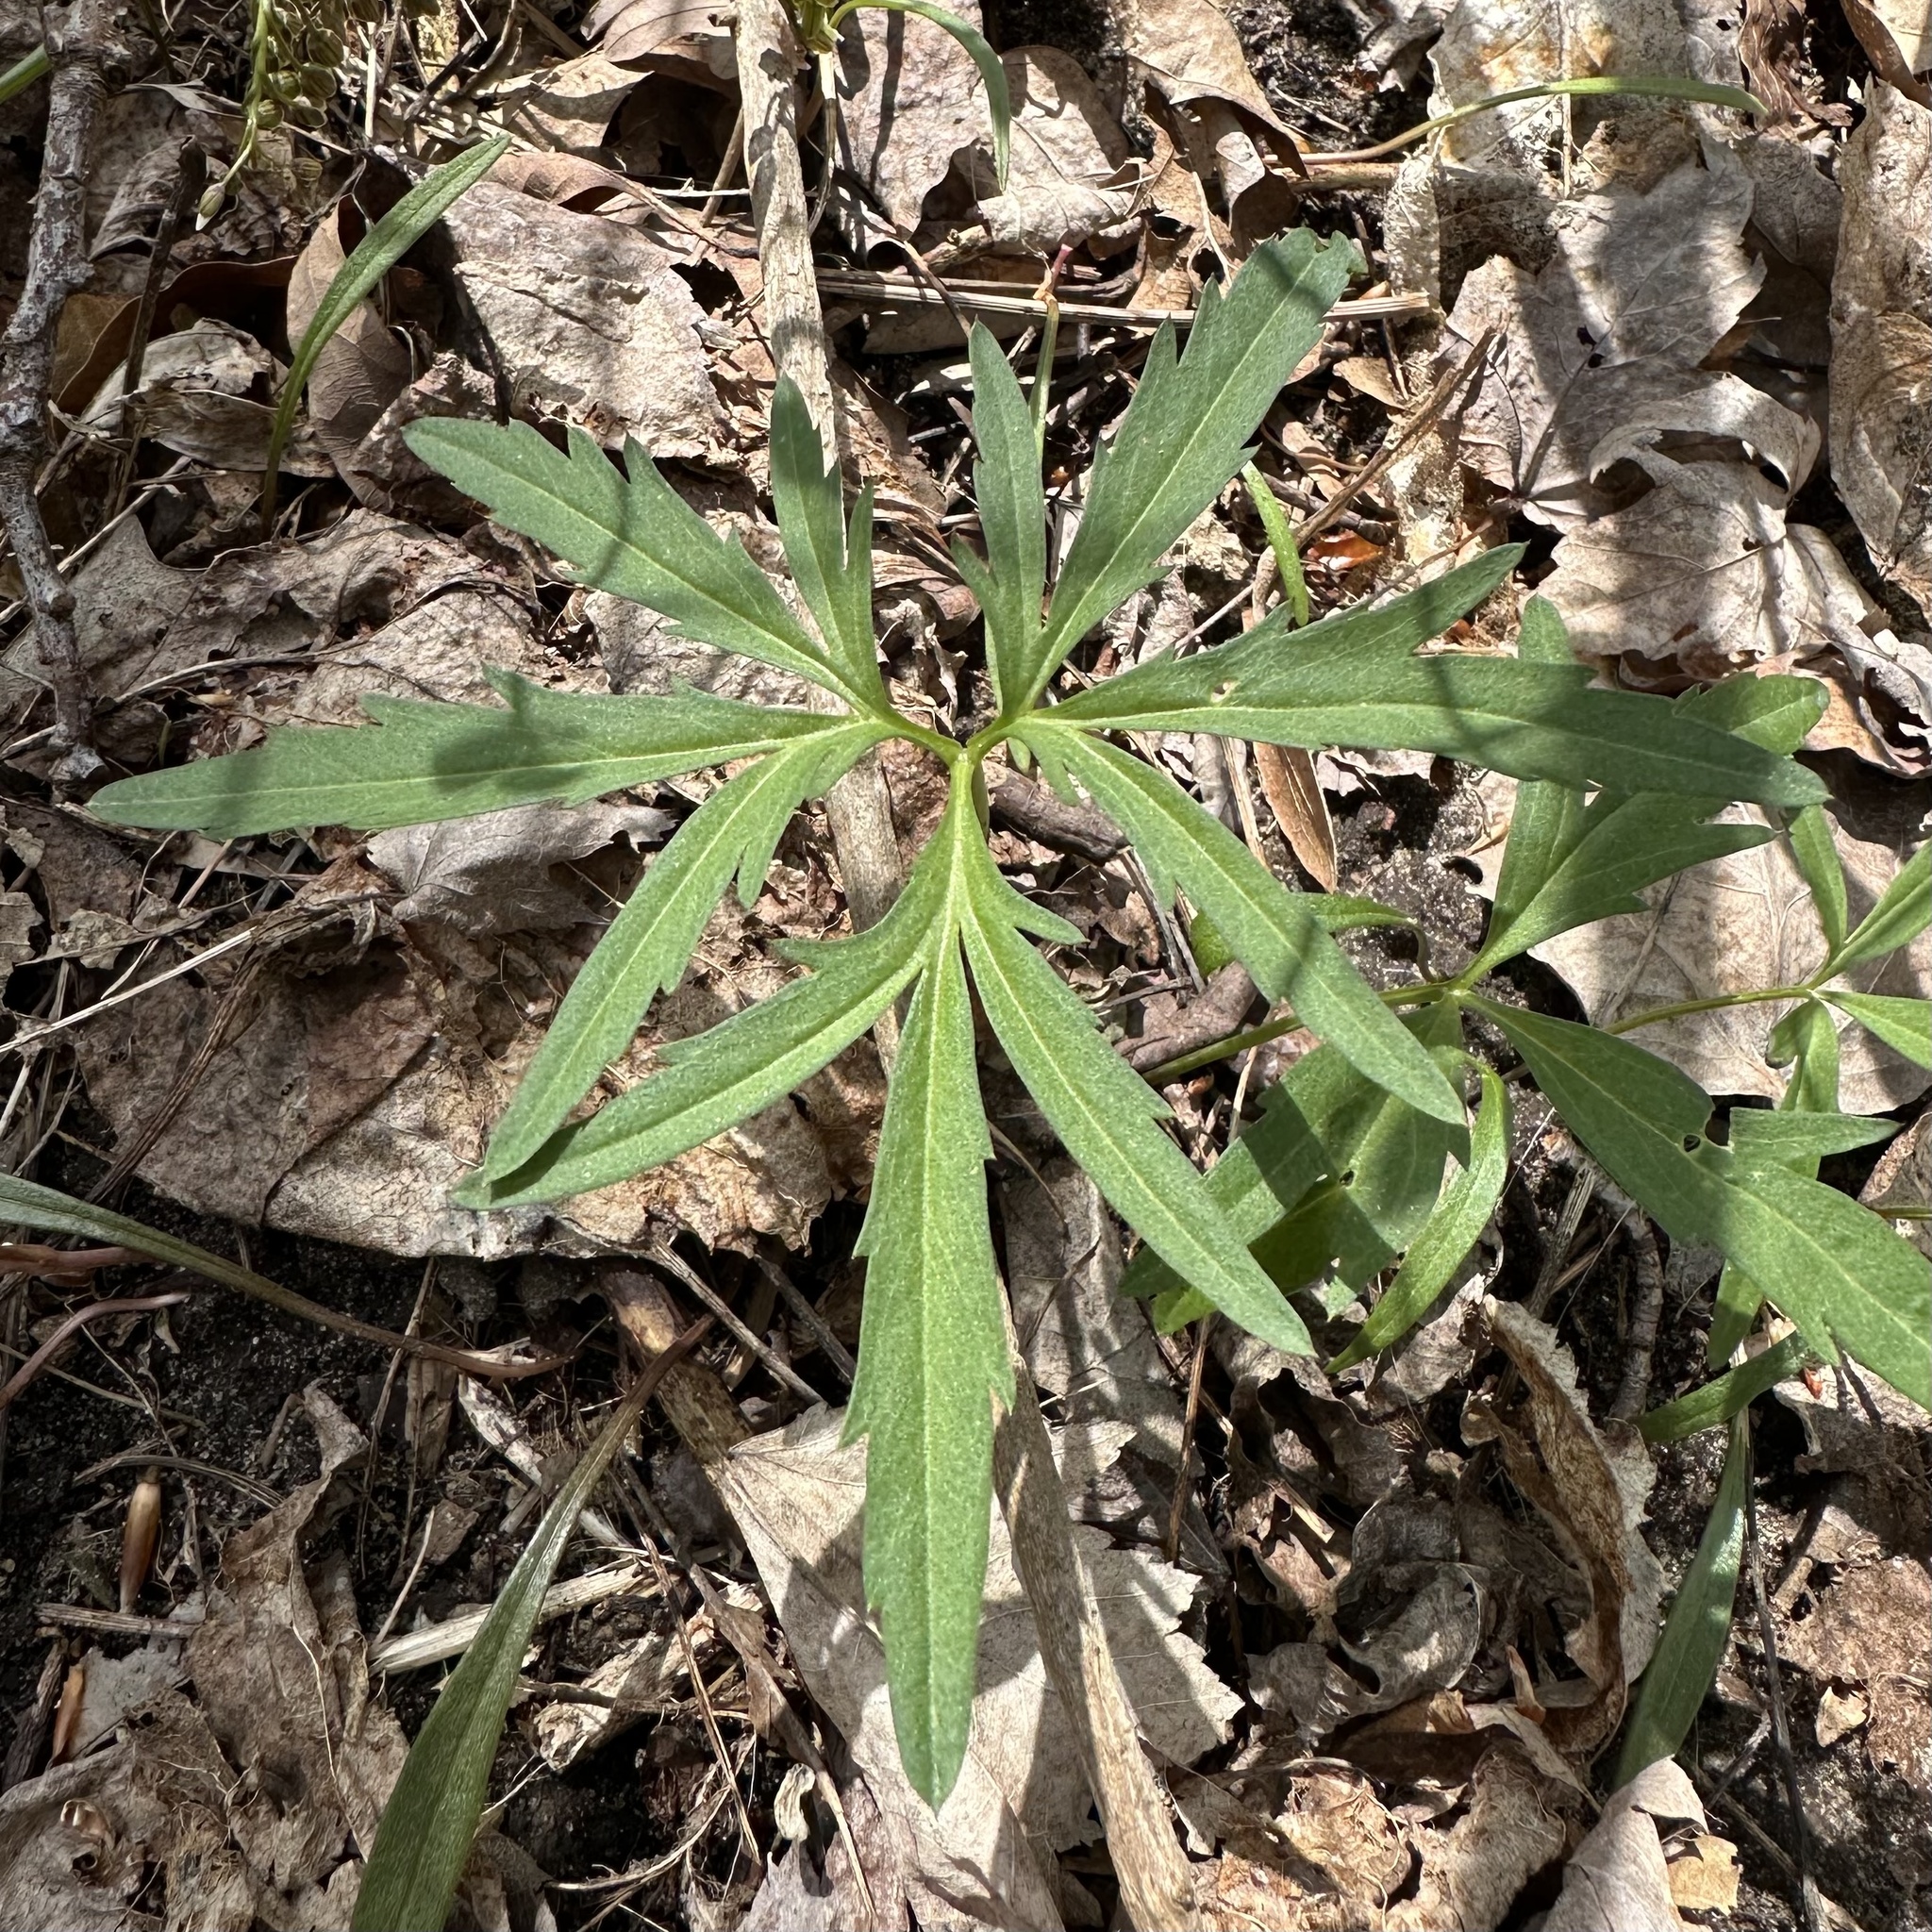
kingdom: Plantae
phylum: Tracheophyta
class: Magnoliopsida
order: Brassicales
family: Brassicaceae
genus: Cardamine
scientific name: Cardamine concatenata
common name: Cut-leaf toothcup
